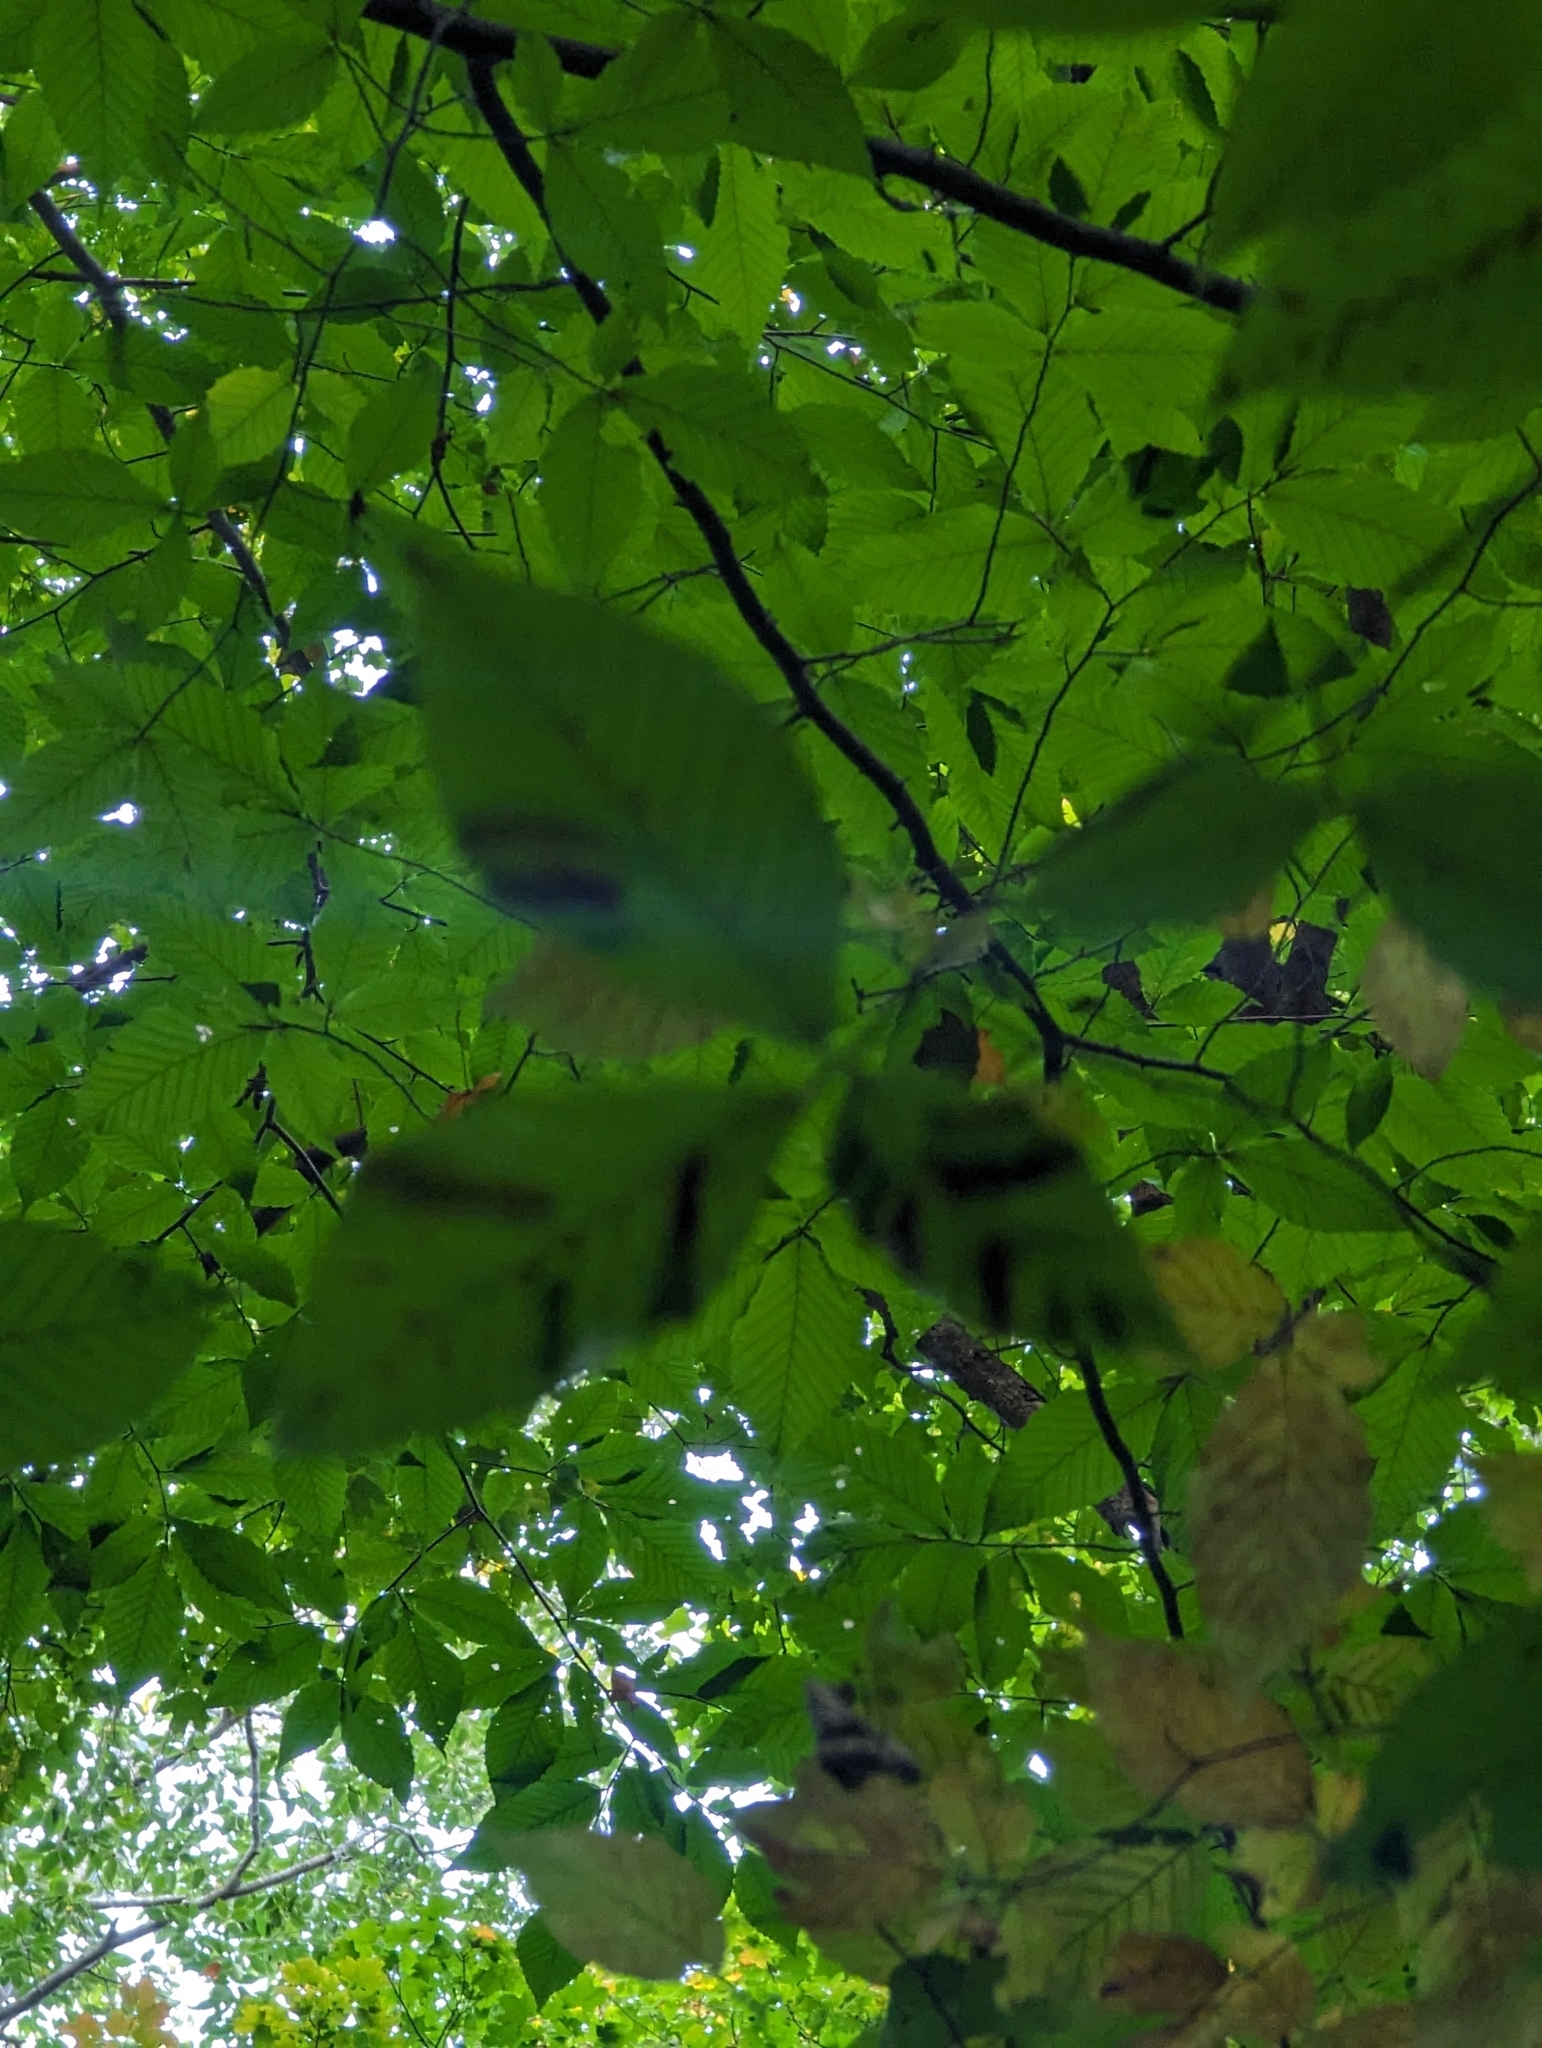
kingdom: Animalia
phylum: Nematoda
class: Chromadorea
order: Rhabditida
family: Anguinidae
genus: Litylenchus
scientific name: Litylenchus crenatae
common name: Beech leaf disease
